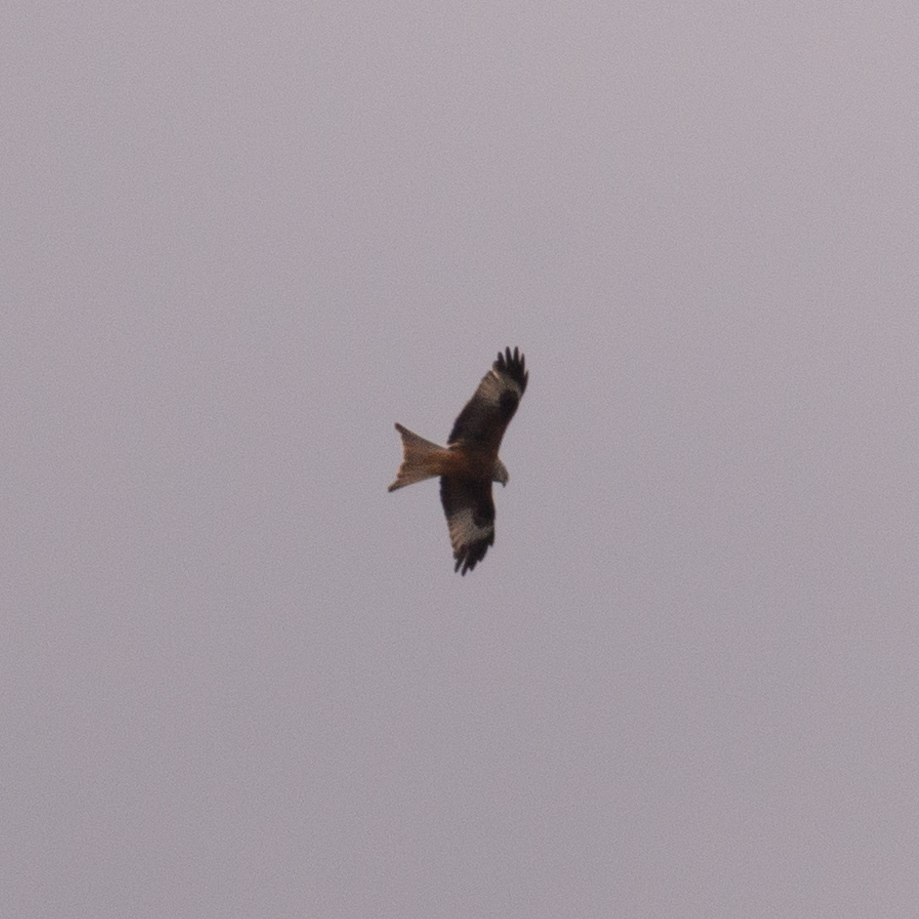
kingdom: Animalia
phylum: Chordata
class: Aves
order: Accipitriformes
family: Accipitridae
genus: Milvus
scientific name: Milvus milvus
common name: Red kite
